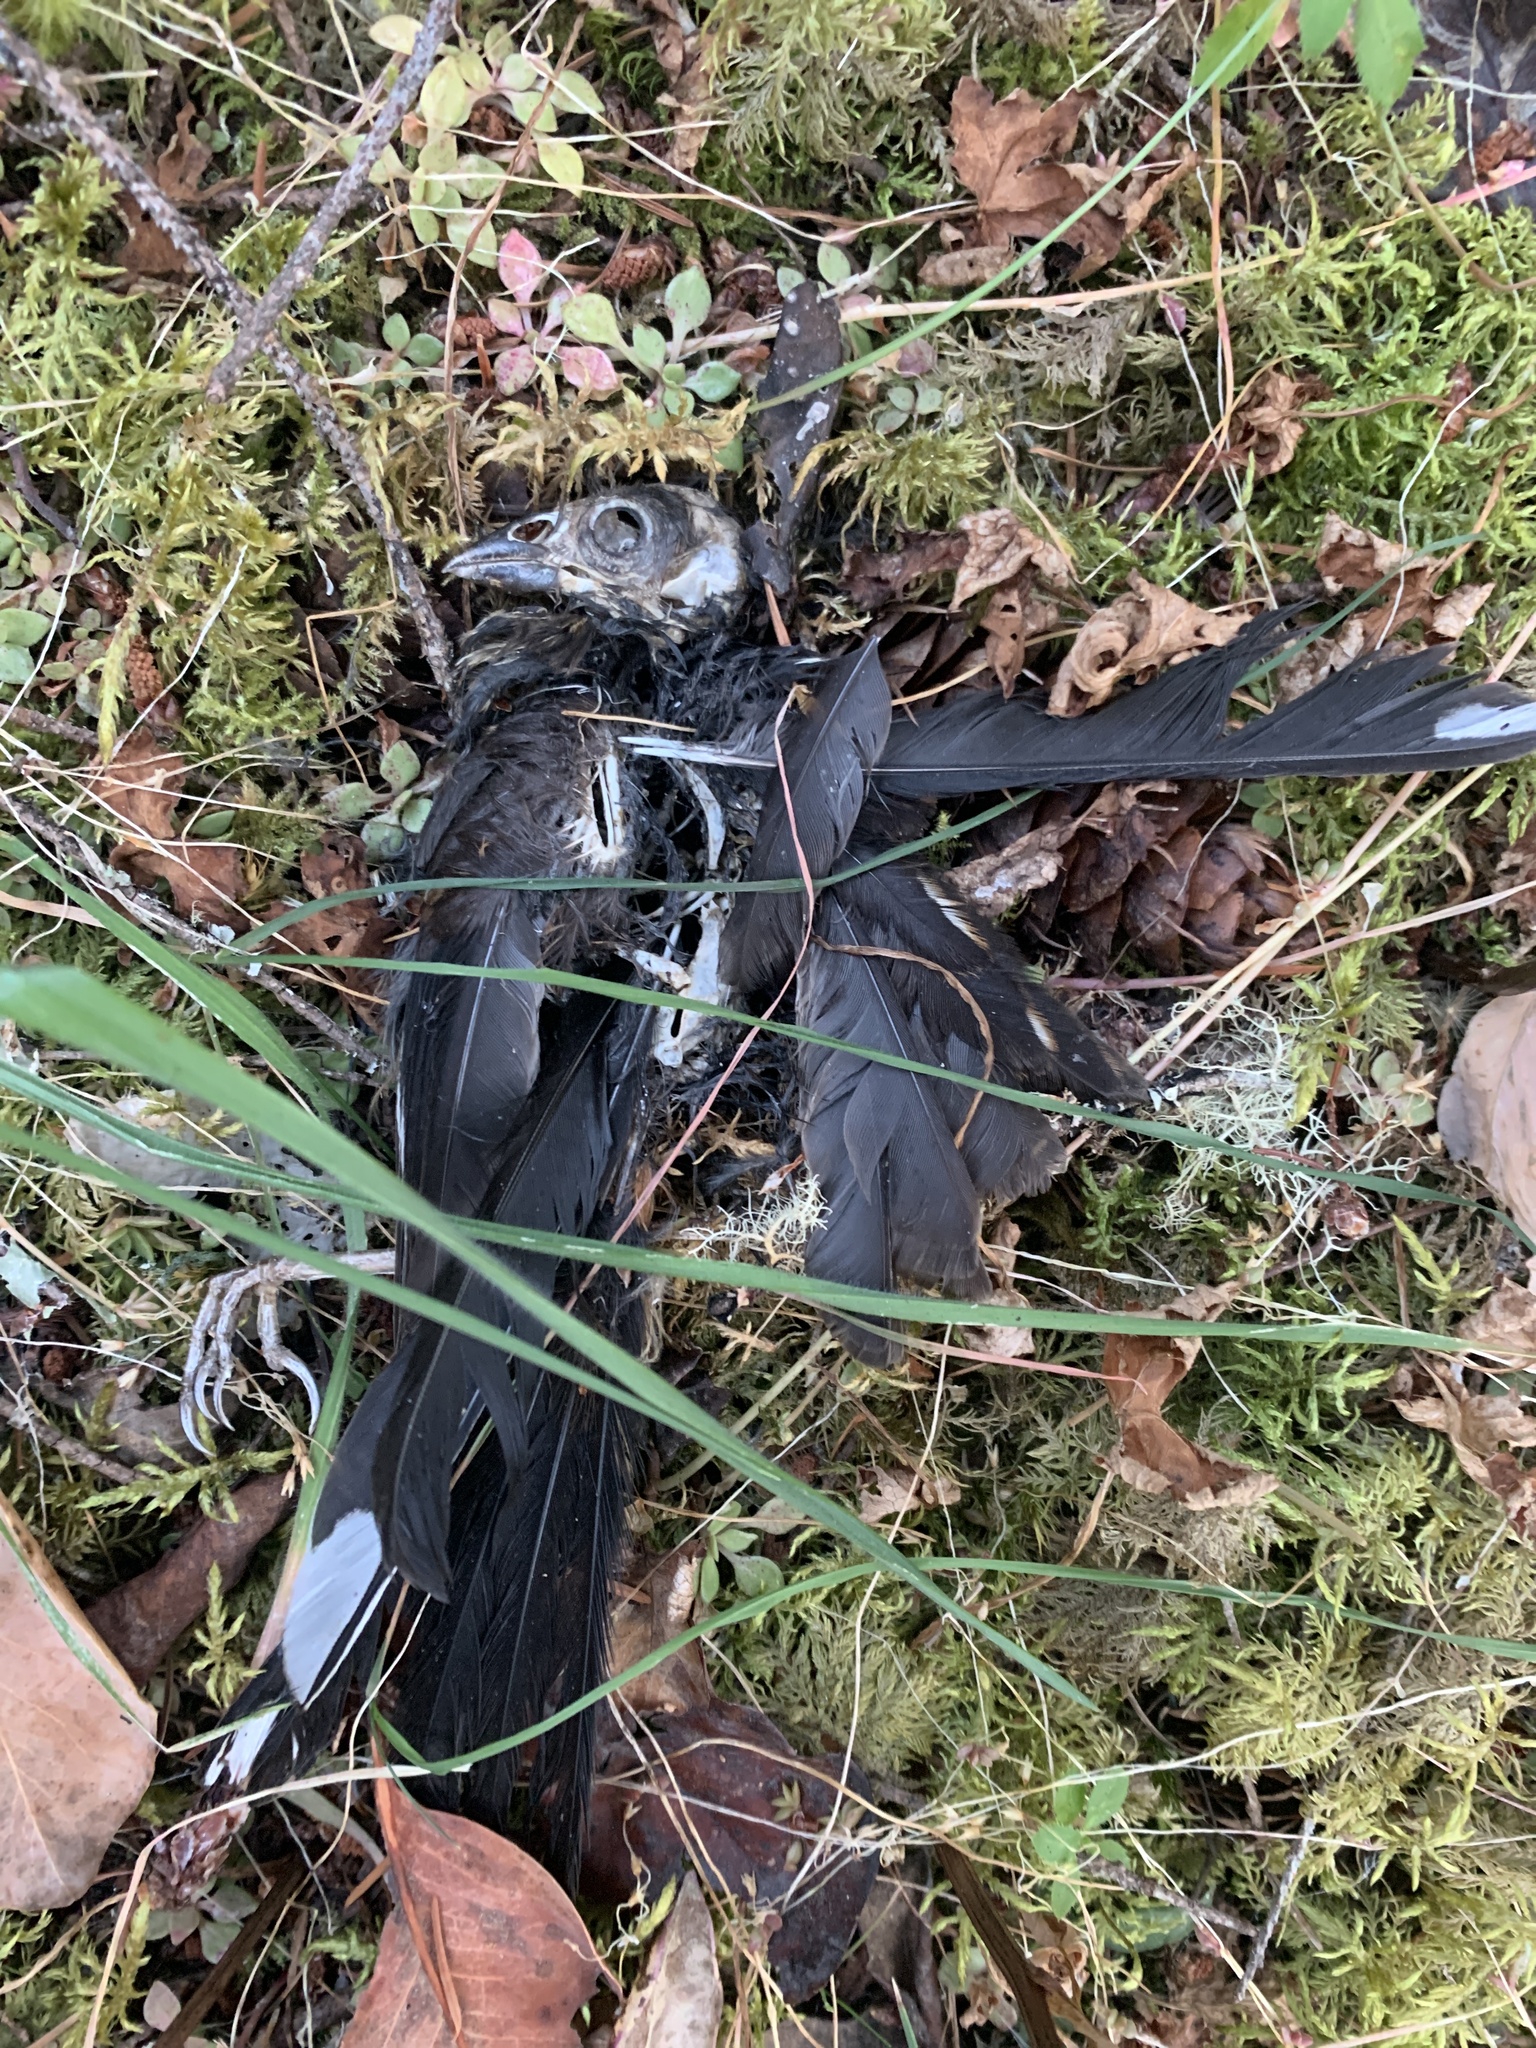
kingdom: Animalia
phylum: Chordata
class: Aves
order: Passeriformes
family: Passerellidae
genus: Pipilo
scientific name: Pipilo maculatus
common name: Spotted towhee
